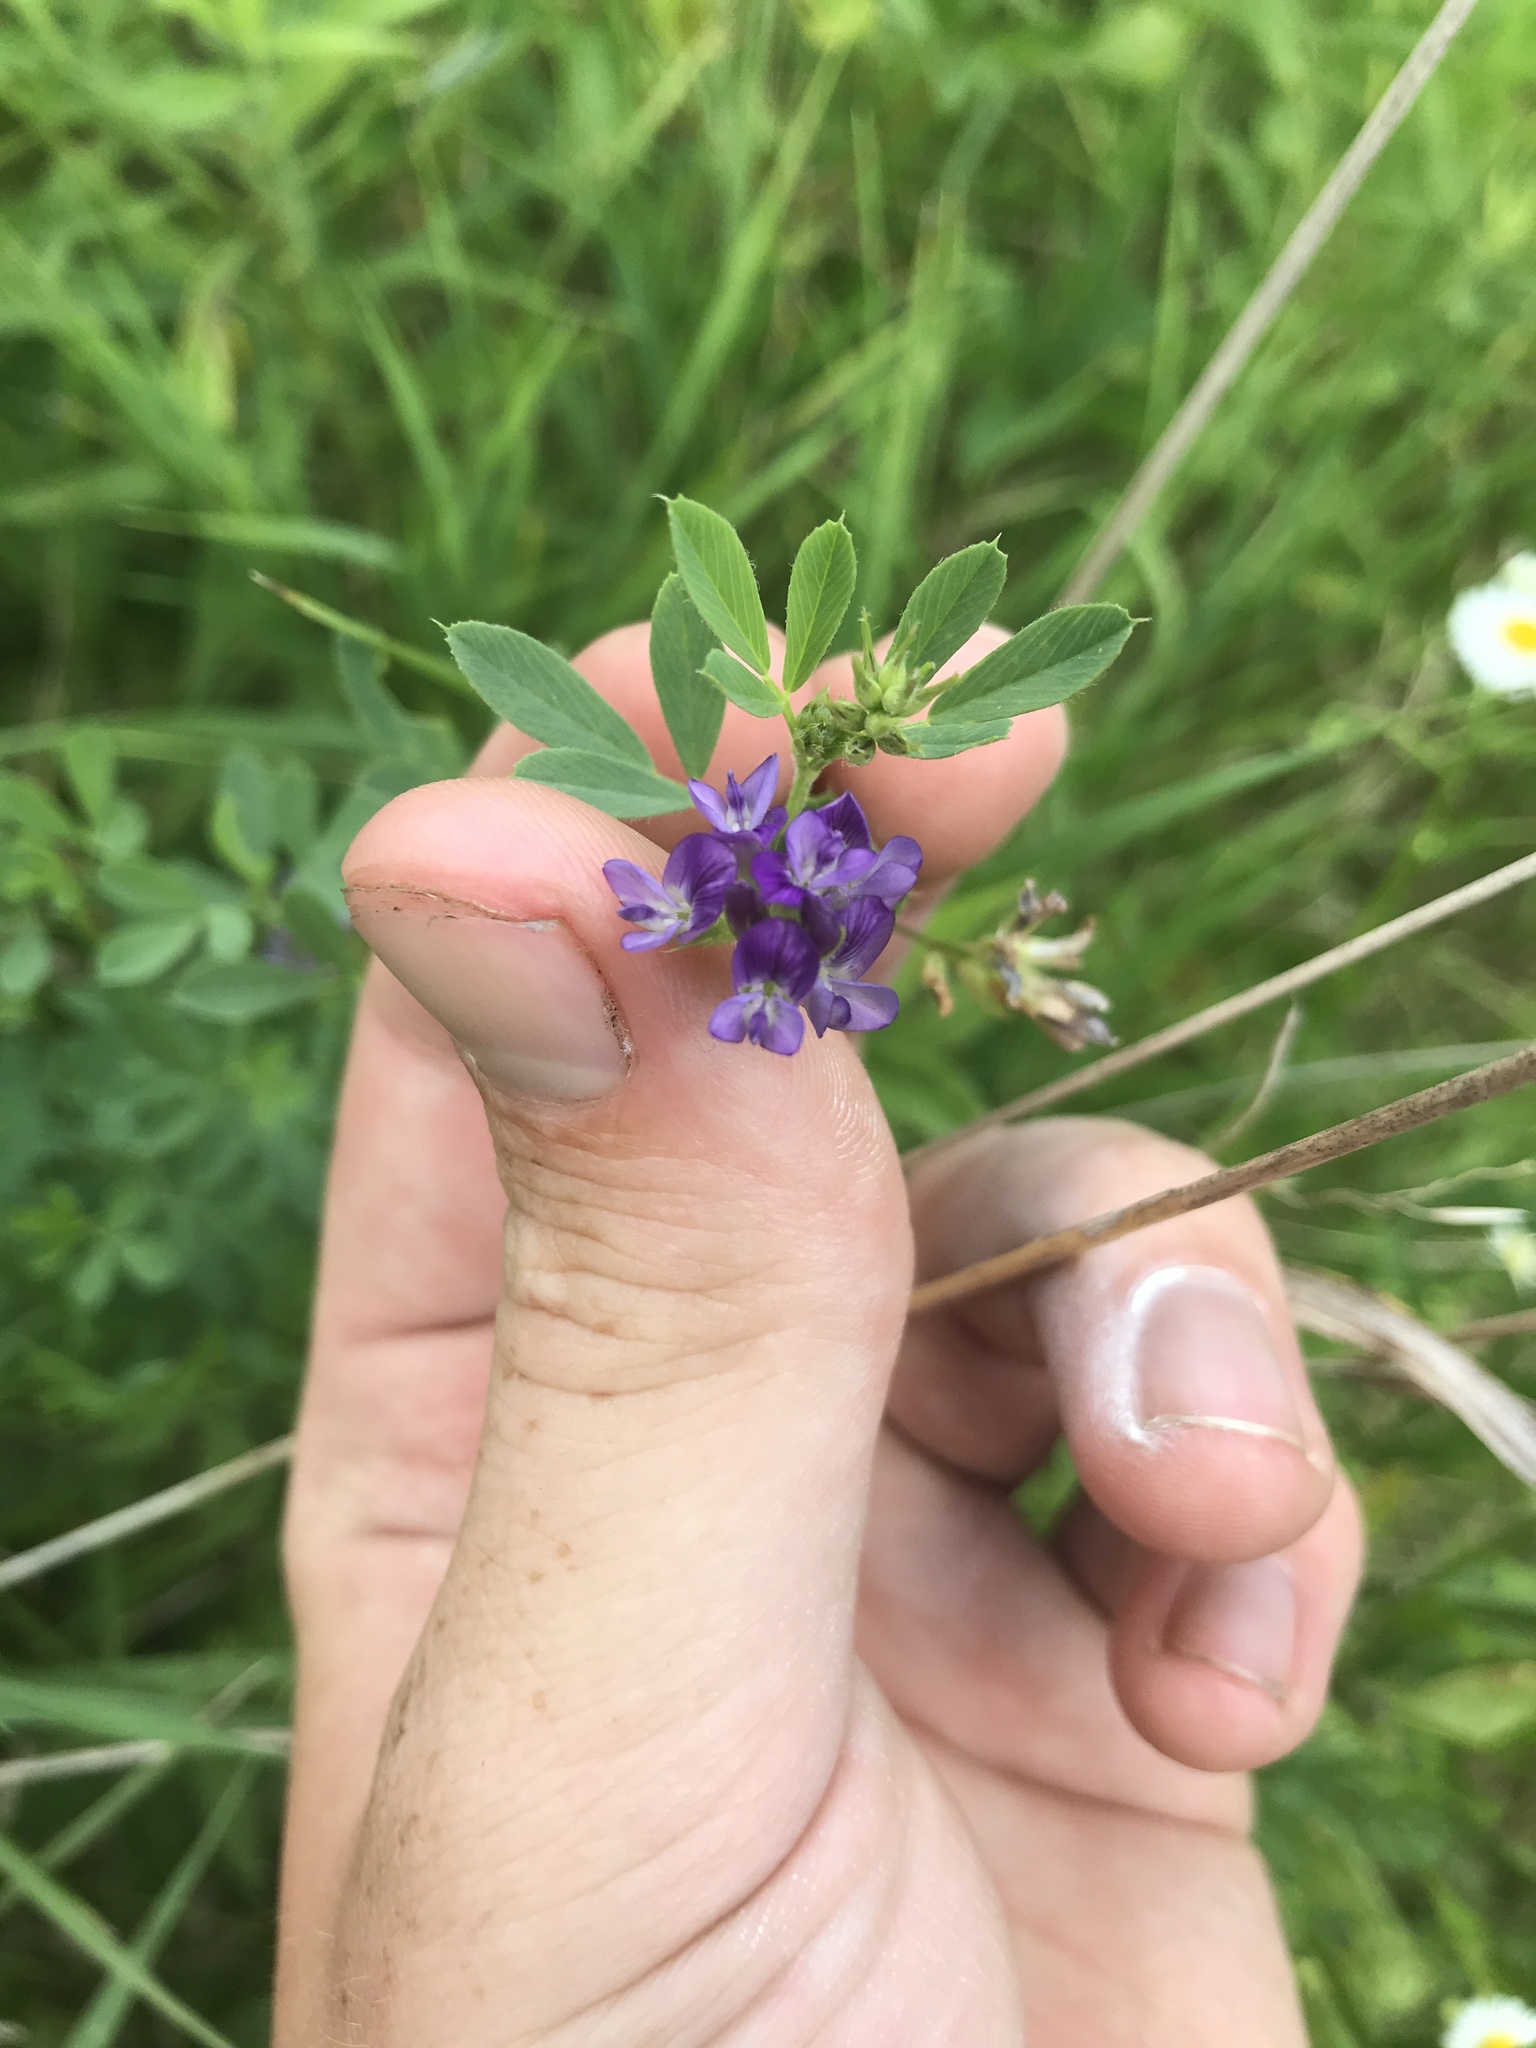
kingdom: Plantae
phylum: Tracheophyta
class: Magnoliopsida
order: Fabales
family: Fabaceae
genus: Medicago
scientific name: Medicago sativa
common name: Alfalfa
